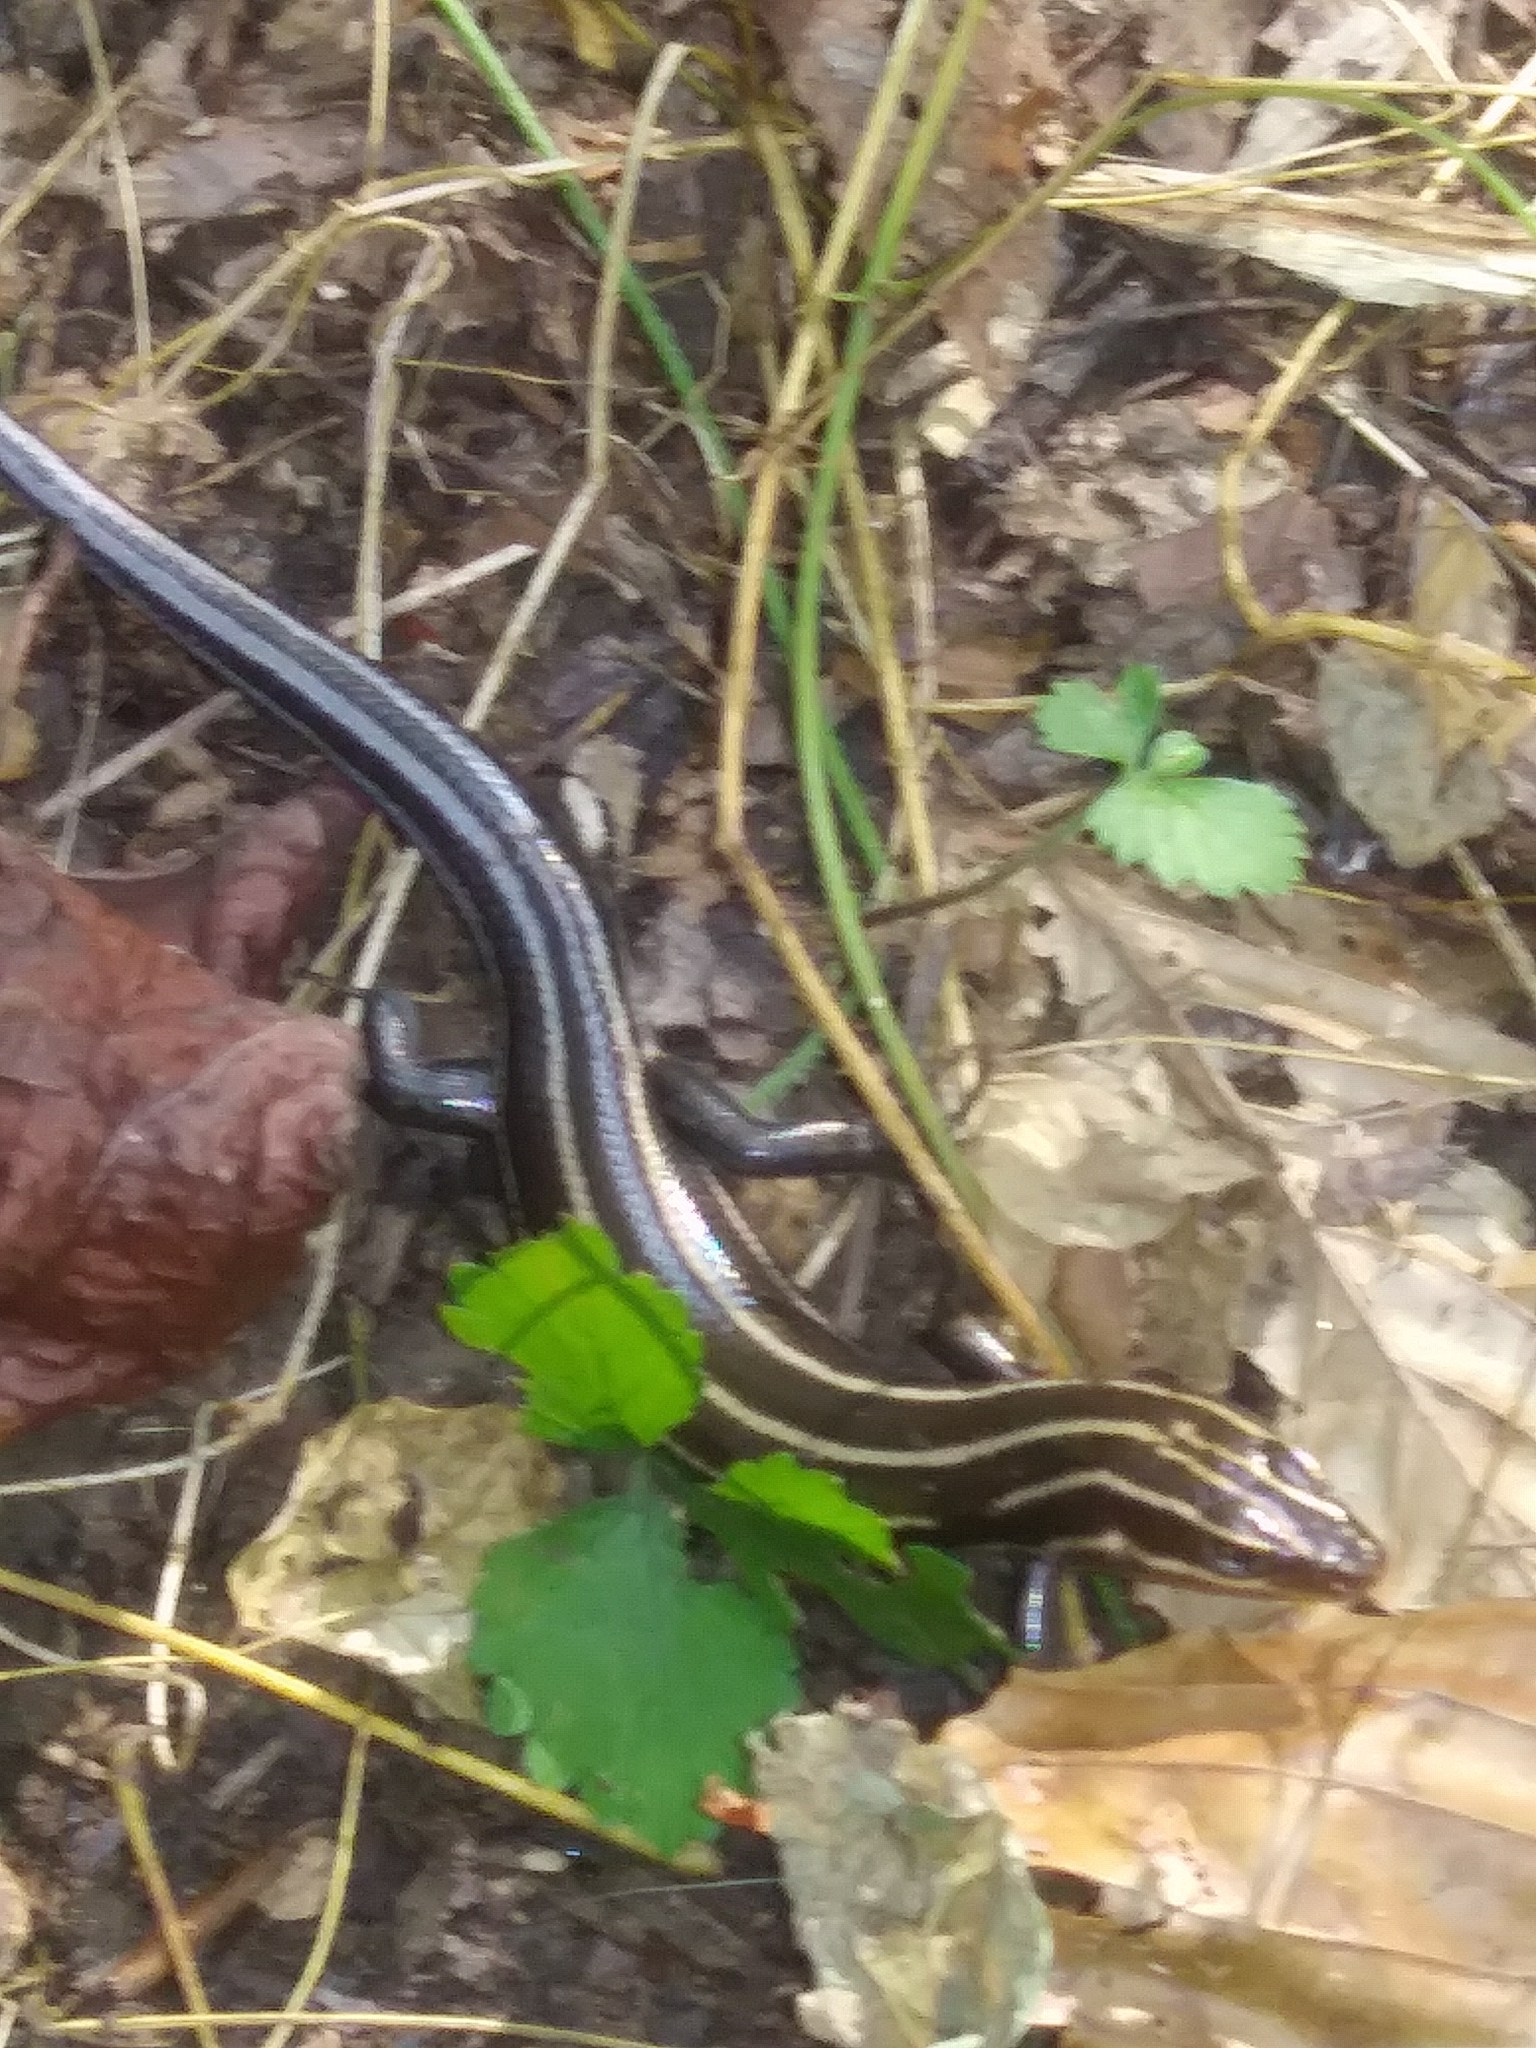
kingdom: Animalia
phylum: Chordata
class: Squamata
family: Scincidae
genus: Plestiodon
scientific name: Plestiodon fasciatus
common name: Five-lined skink
